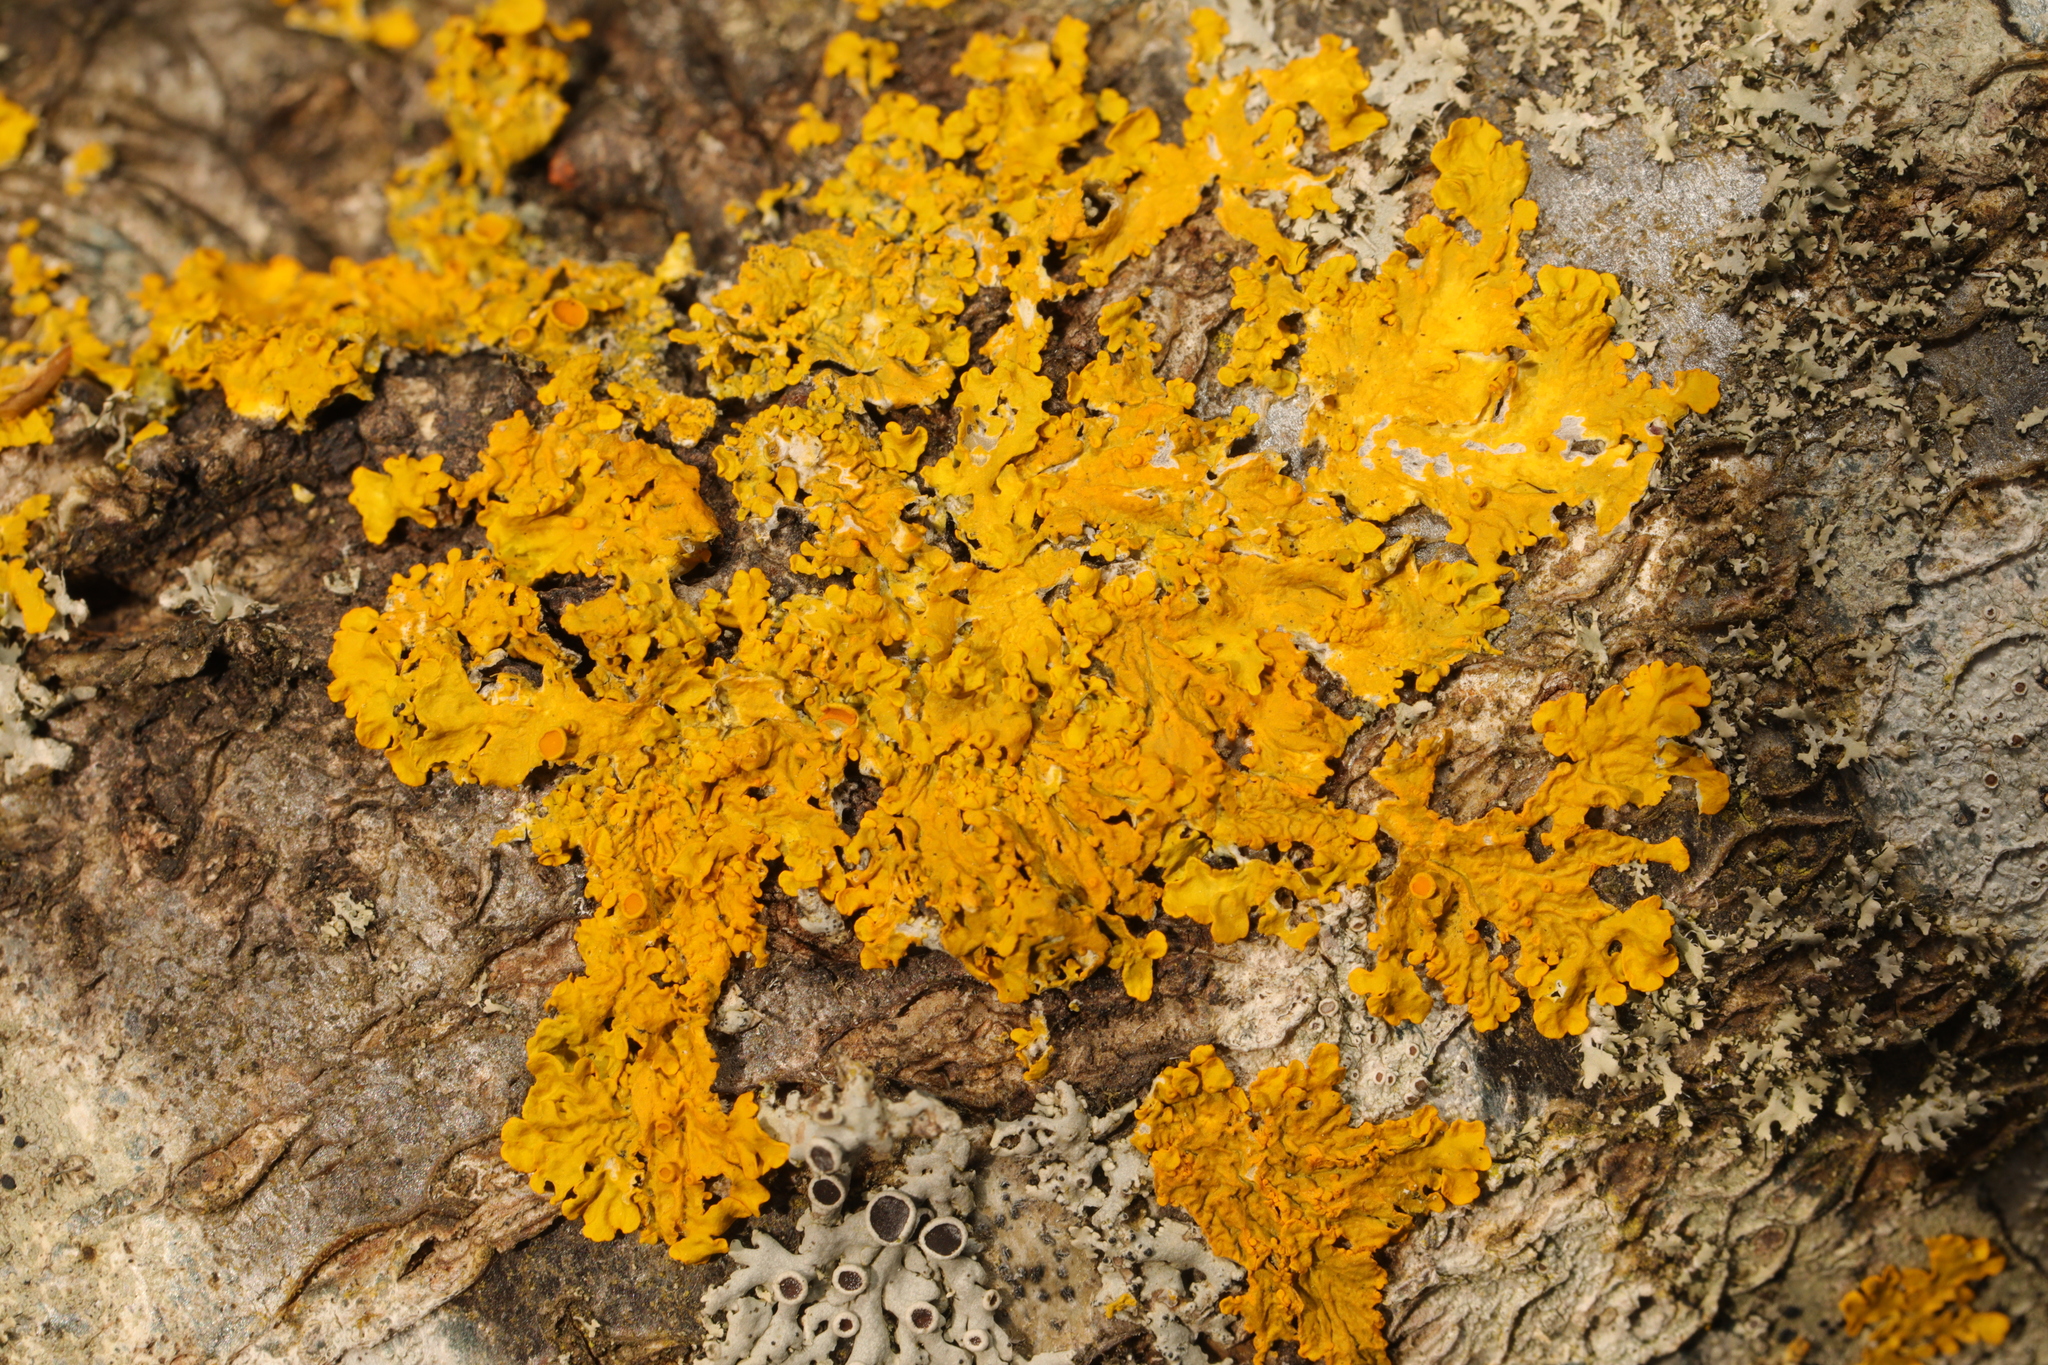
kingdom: Fungi
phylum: Ascomycota
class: Lecanoromycetes
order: Teloschistales
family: Teloschistaceae
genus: Xanthoria
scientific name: Xanthoria parietina
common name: Common orange lichen
